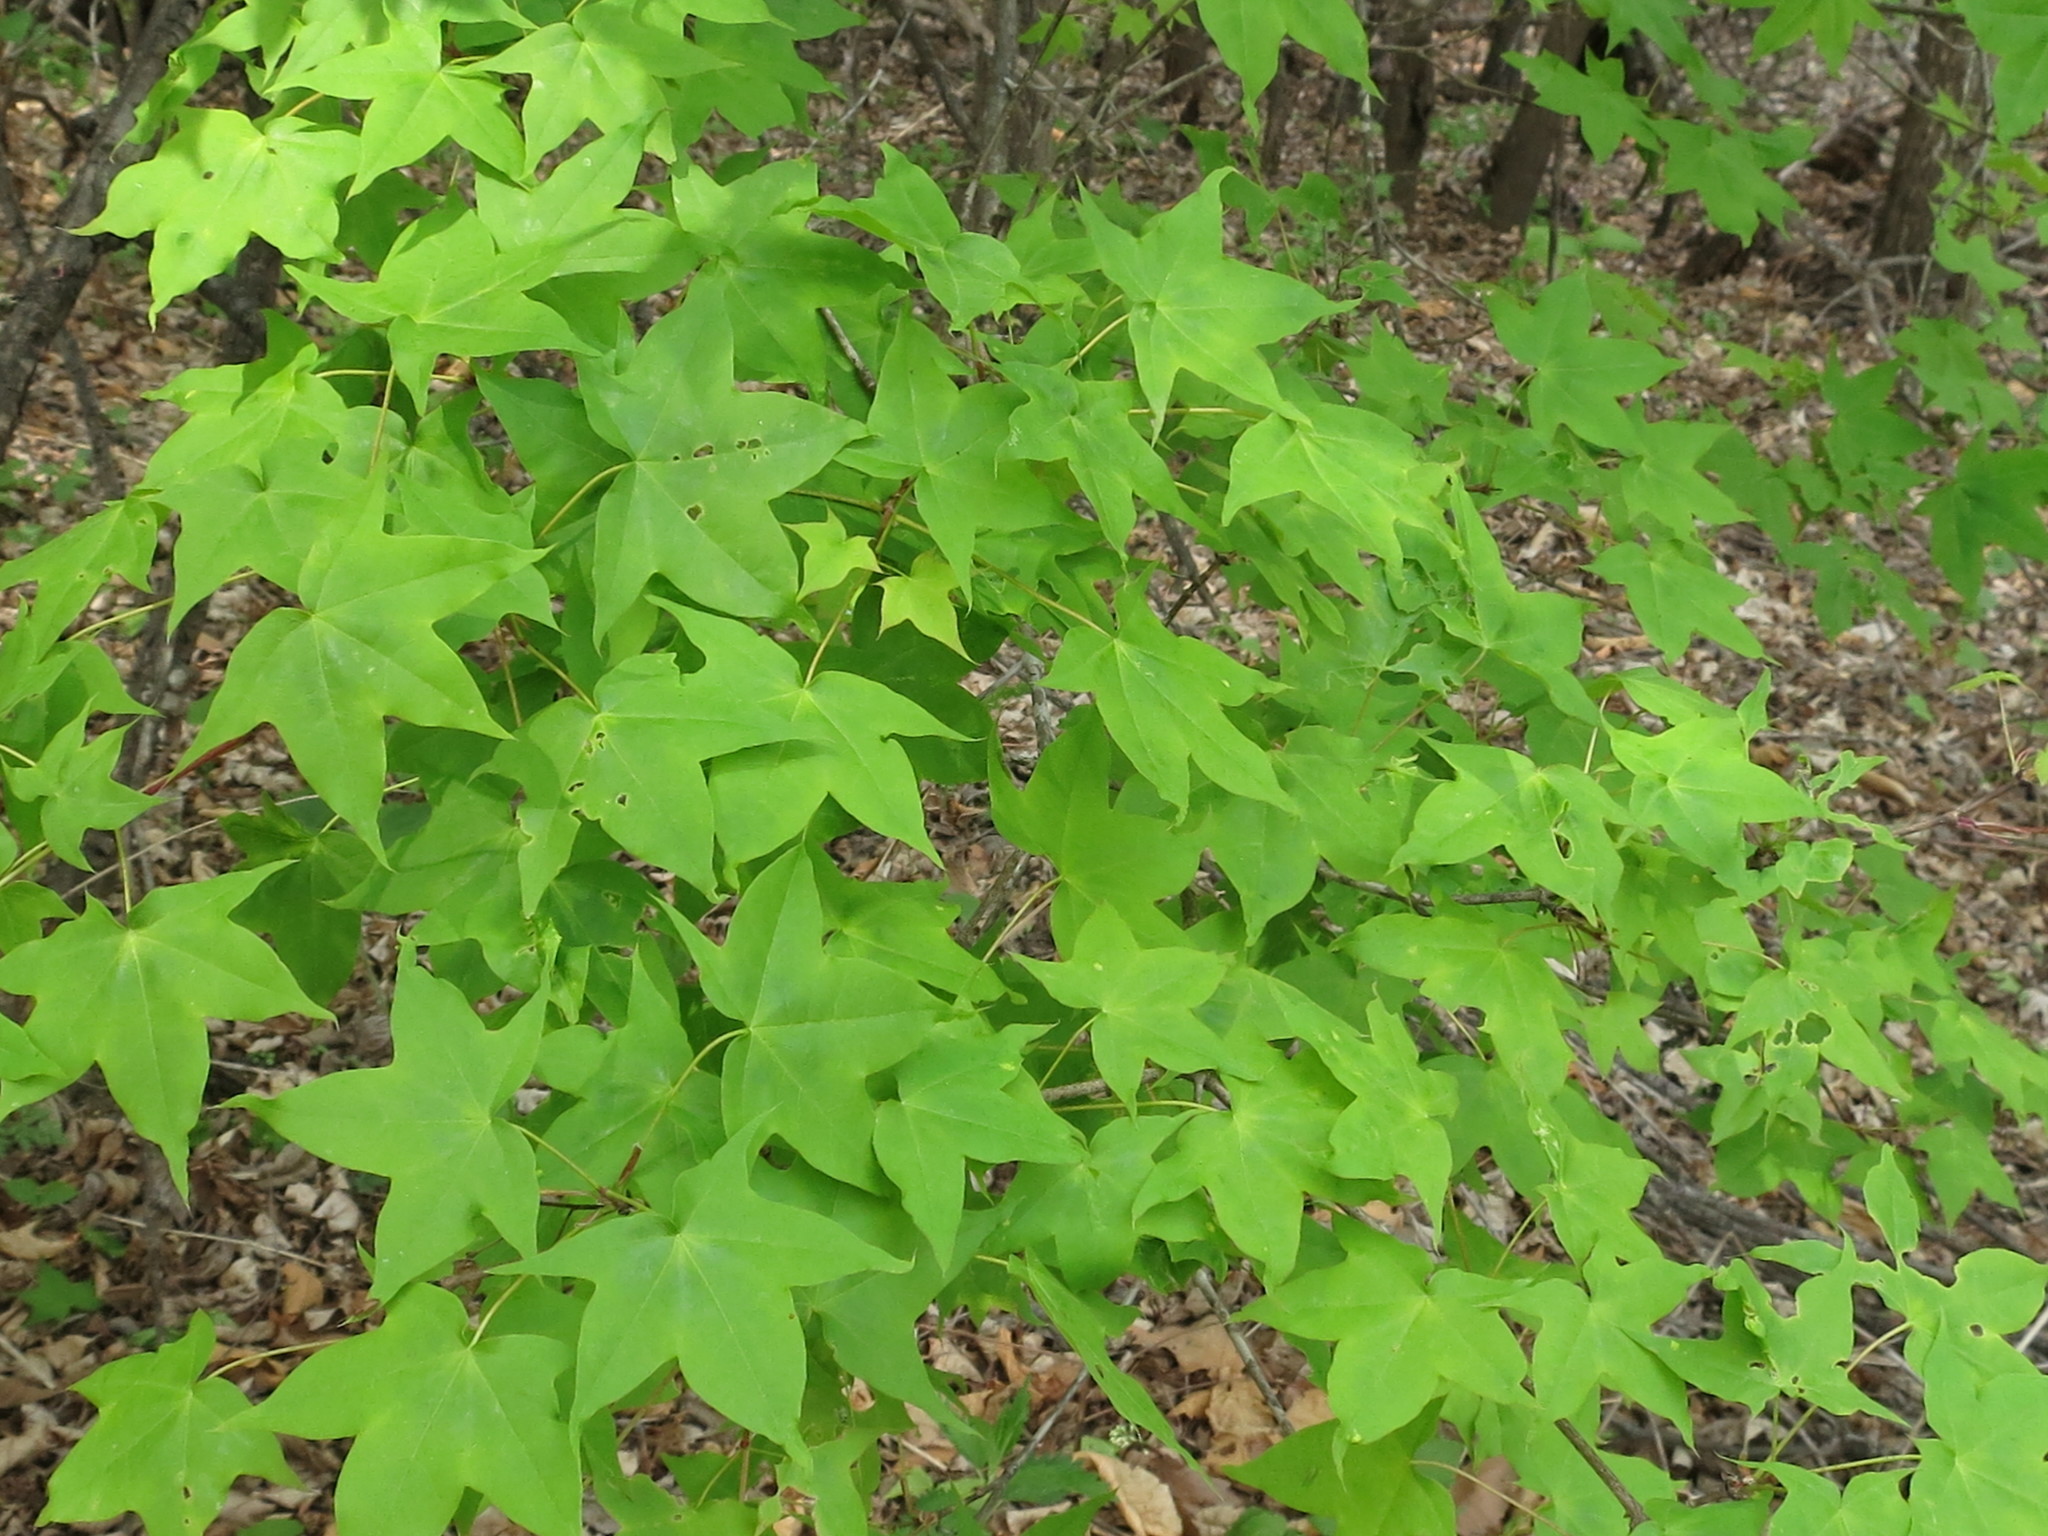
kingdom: Plantae
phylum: Tracheophyta
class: Magnoliopsida
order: Sapindales
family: Sapindaceae
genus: Acer
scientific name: Acer pictum
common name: The painted maple
